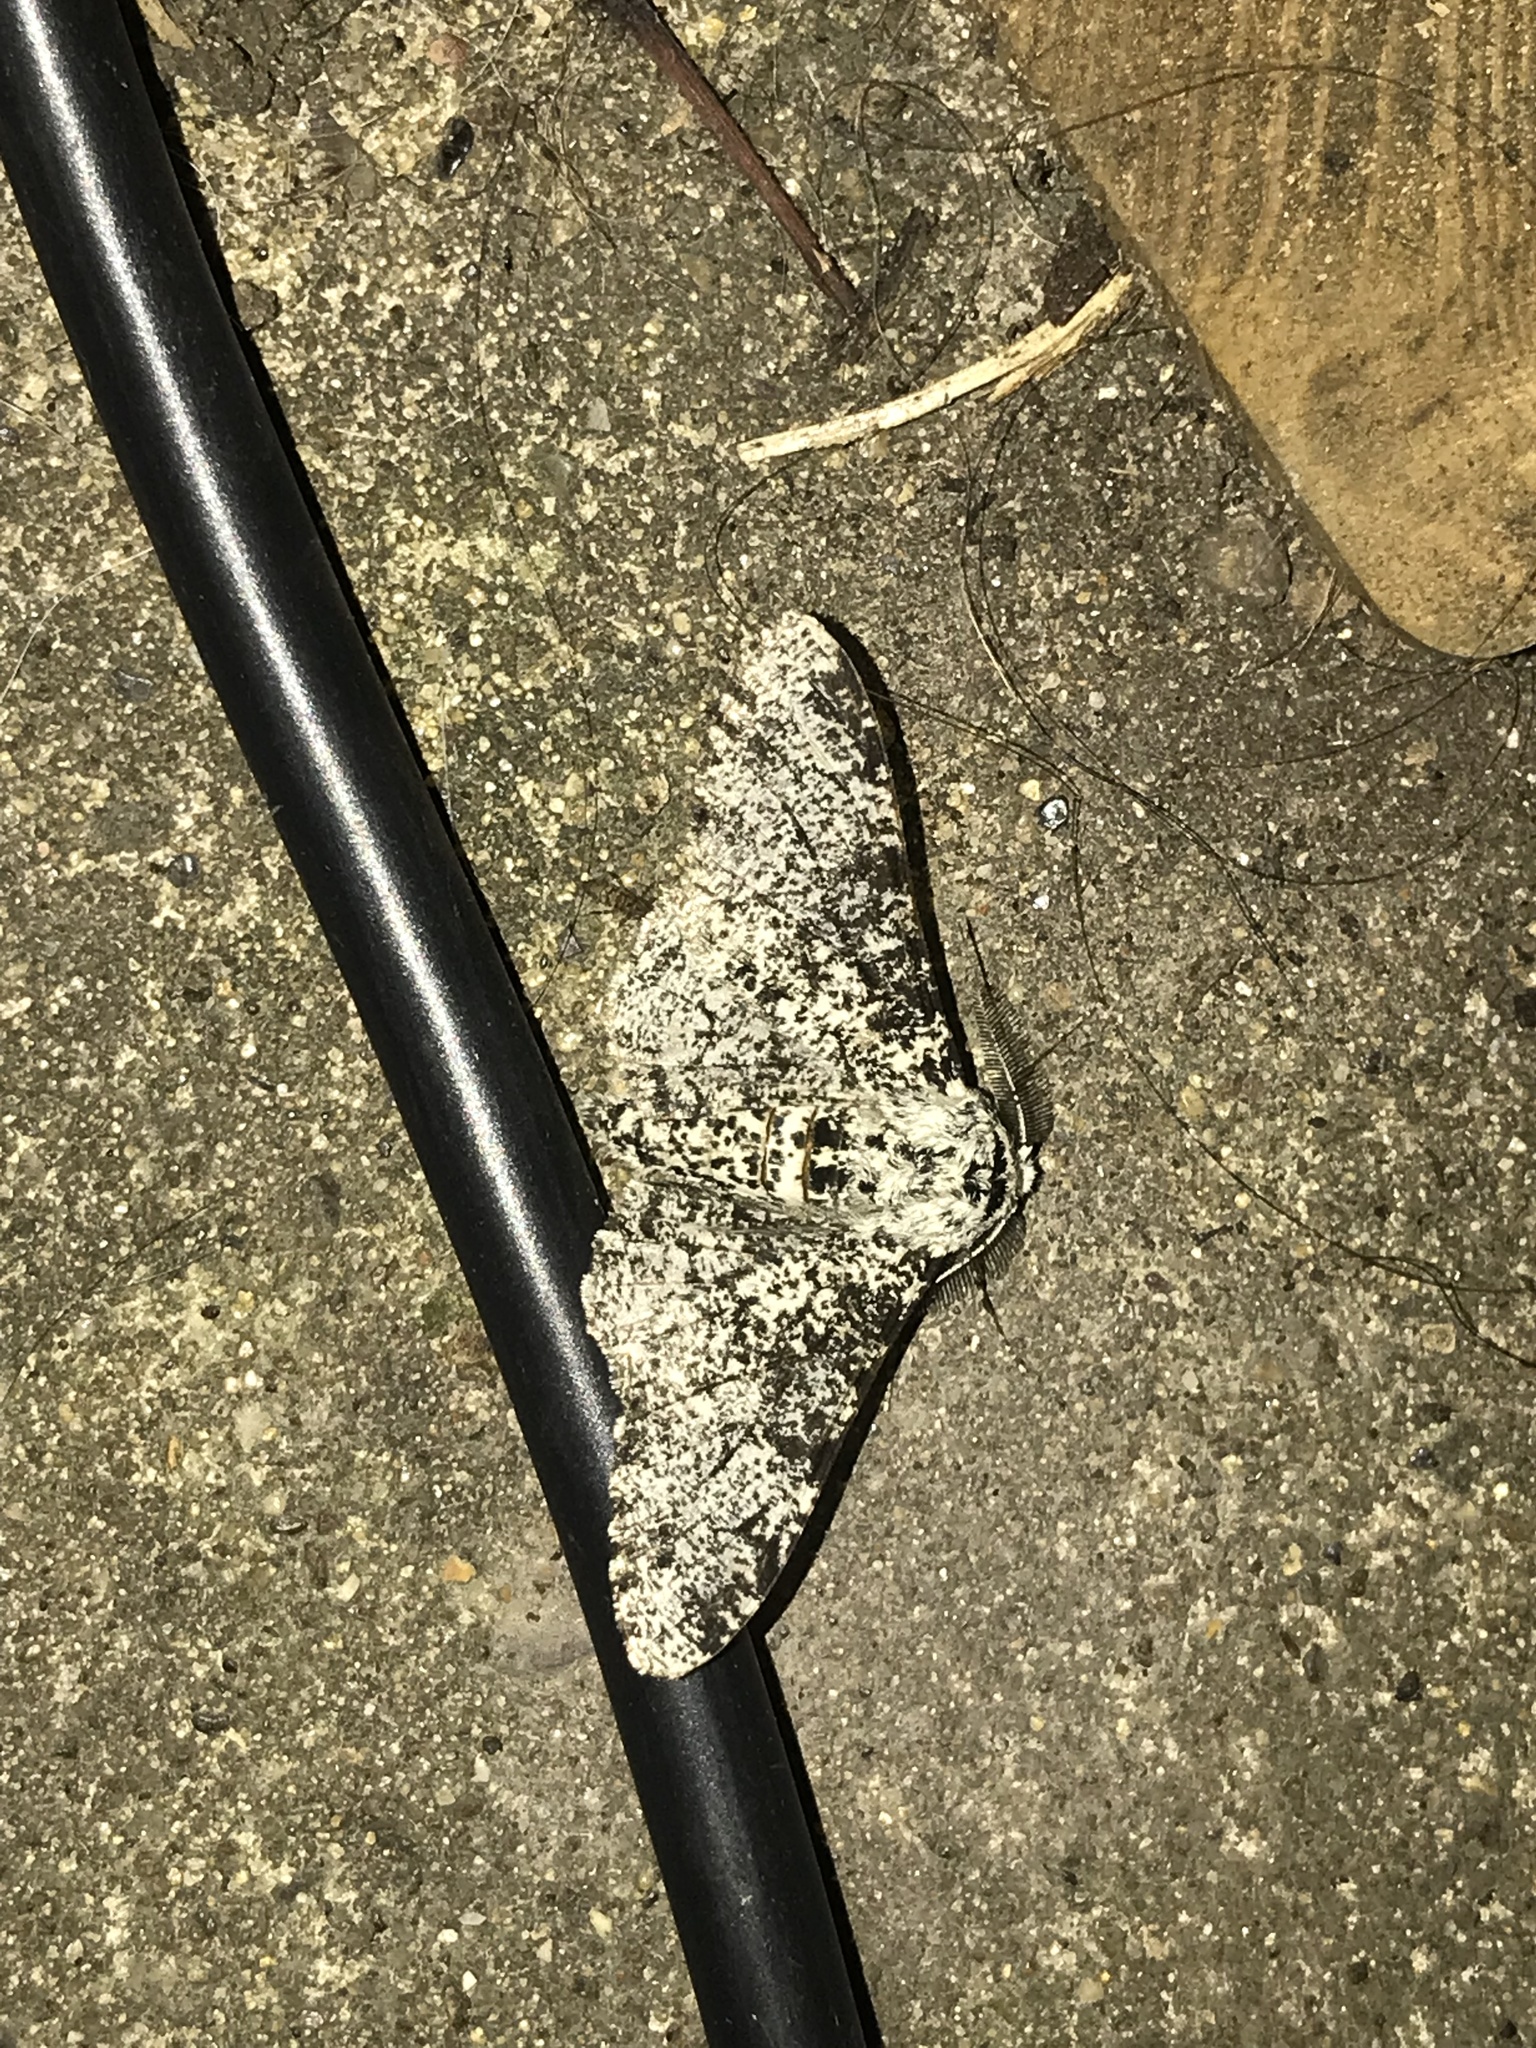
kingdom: Animalia
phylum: Arthropoda
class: Insecta
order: Lepidoptera
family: Geometridae
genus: Biston
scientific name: Biston betularia
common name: Peppered moth
